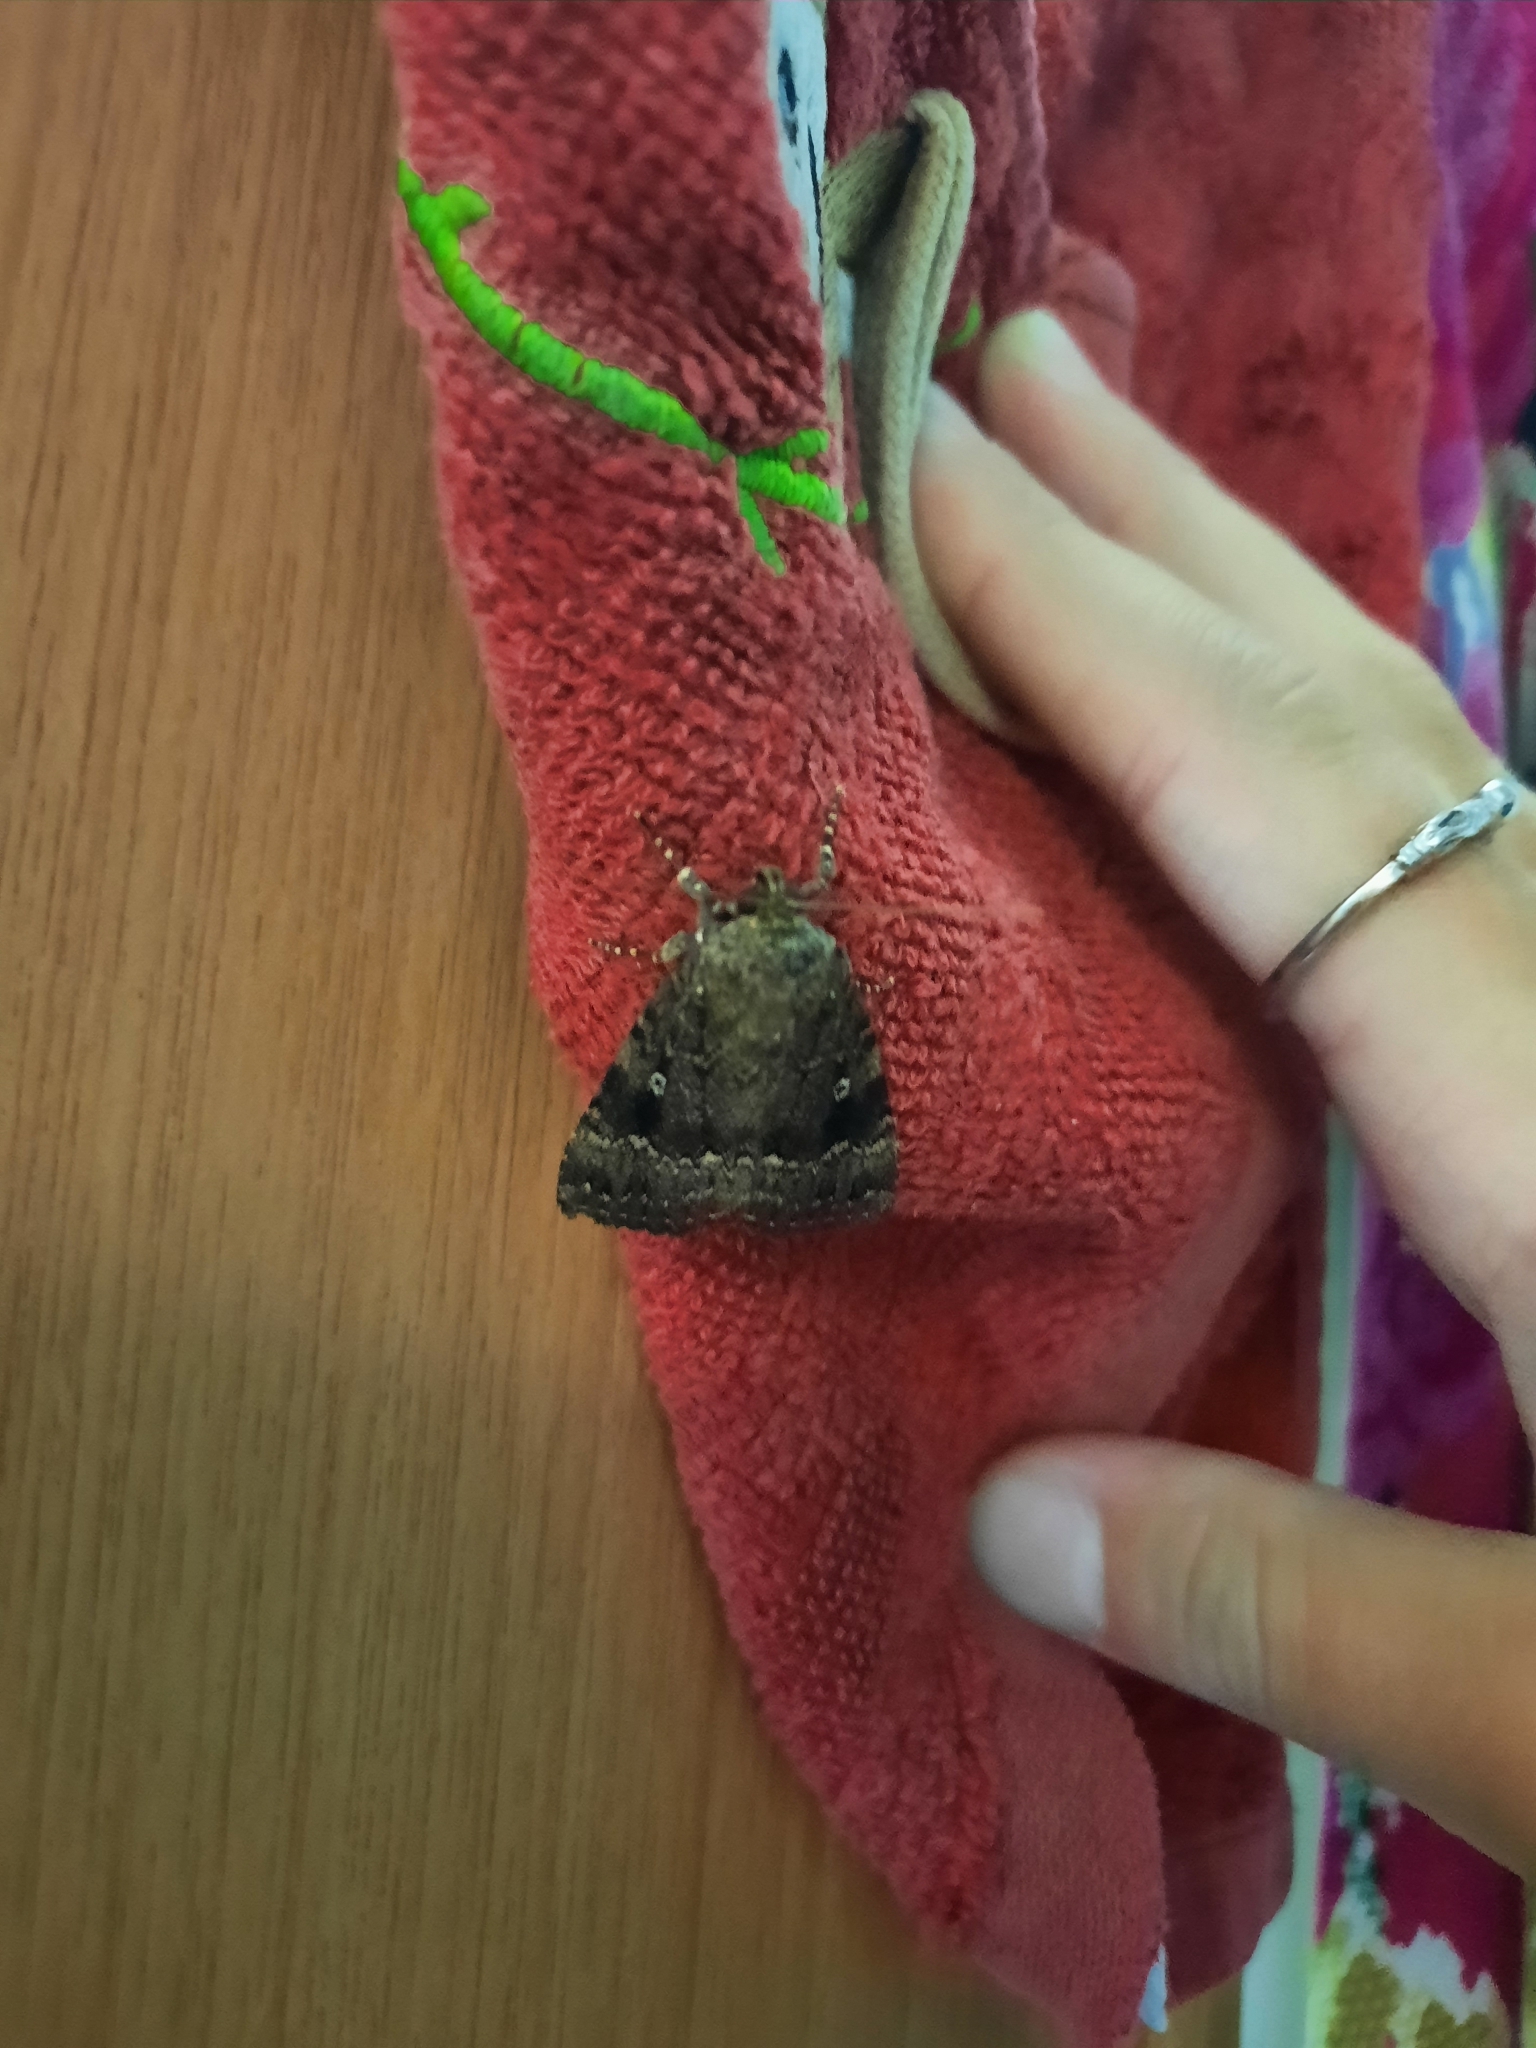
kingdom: Animalia
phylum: Arthropoda
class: Insecta
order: Lepidoptera
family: Noctuidae
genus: Amphipyra
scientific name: Amphipyra pyramidea
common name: Copper underwing
